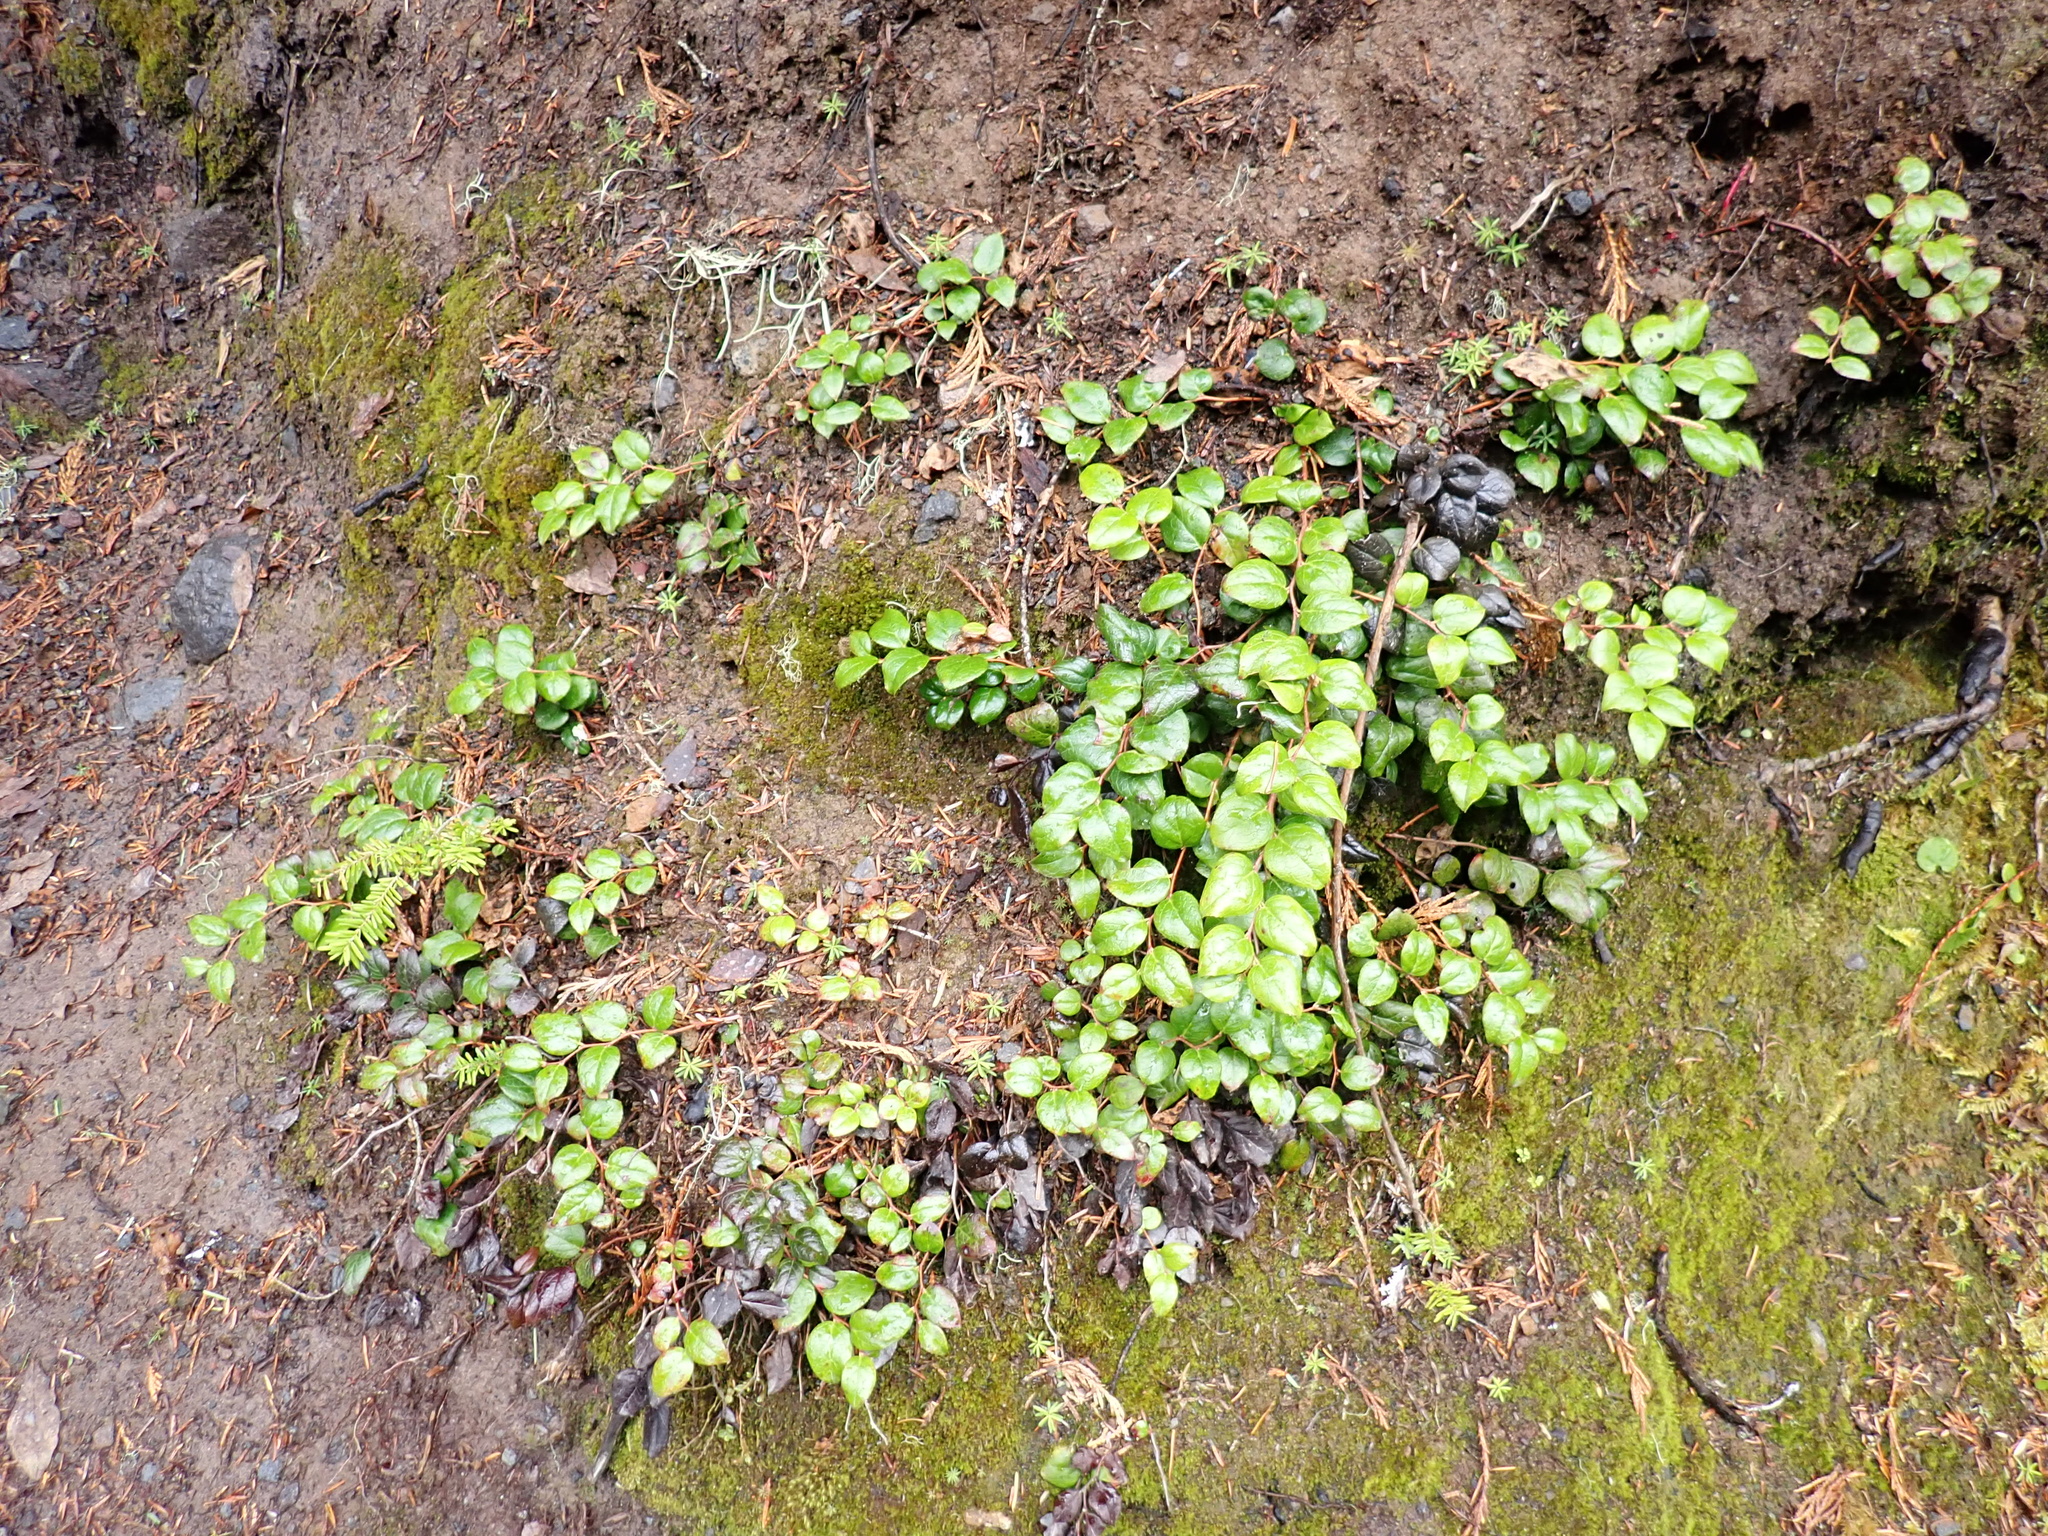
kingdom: Plantae
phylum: Tracheophyta
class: Magnoliopsida
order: Ericales
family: Ericaceae
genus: Gaultheria
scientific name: Gaultheria ovatifolia
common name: Oregon wintergreen
